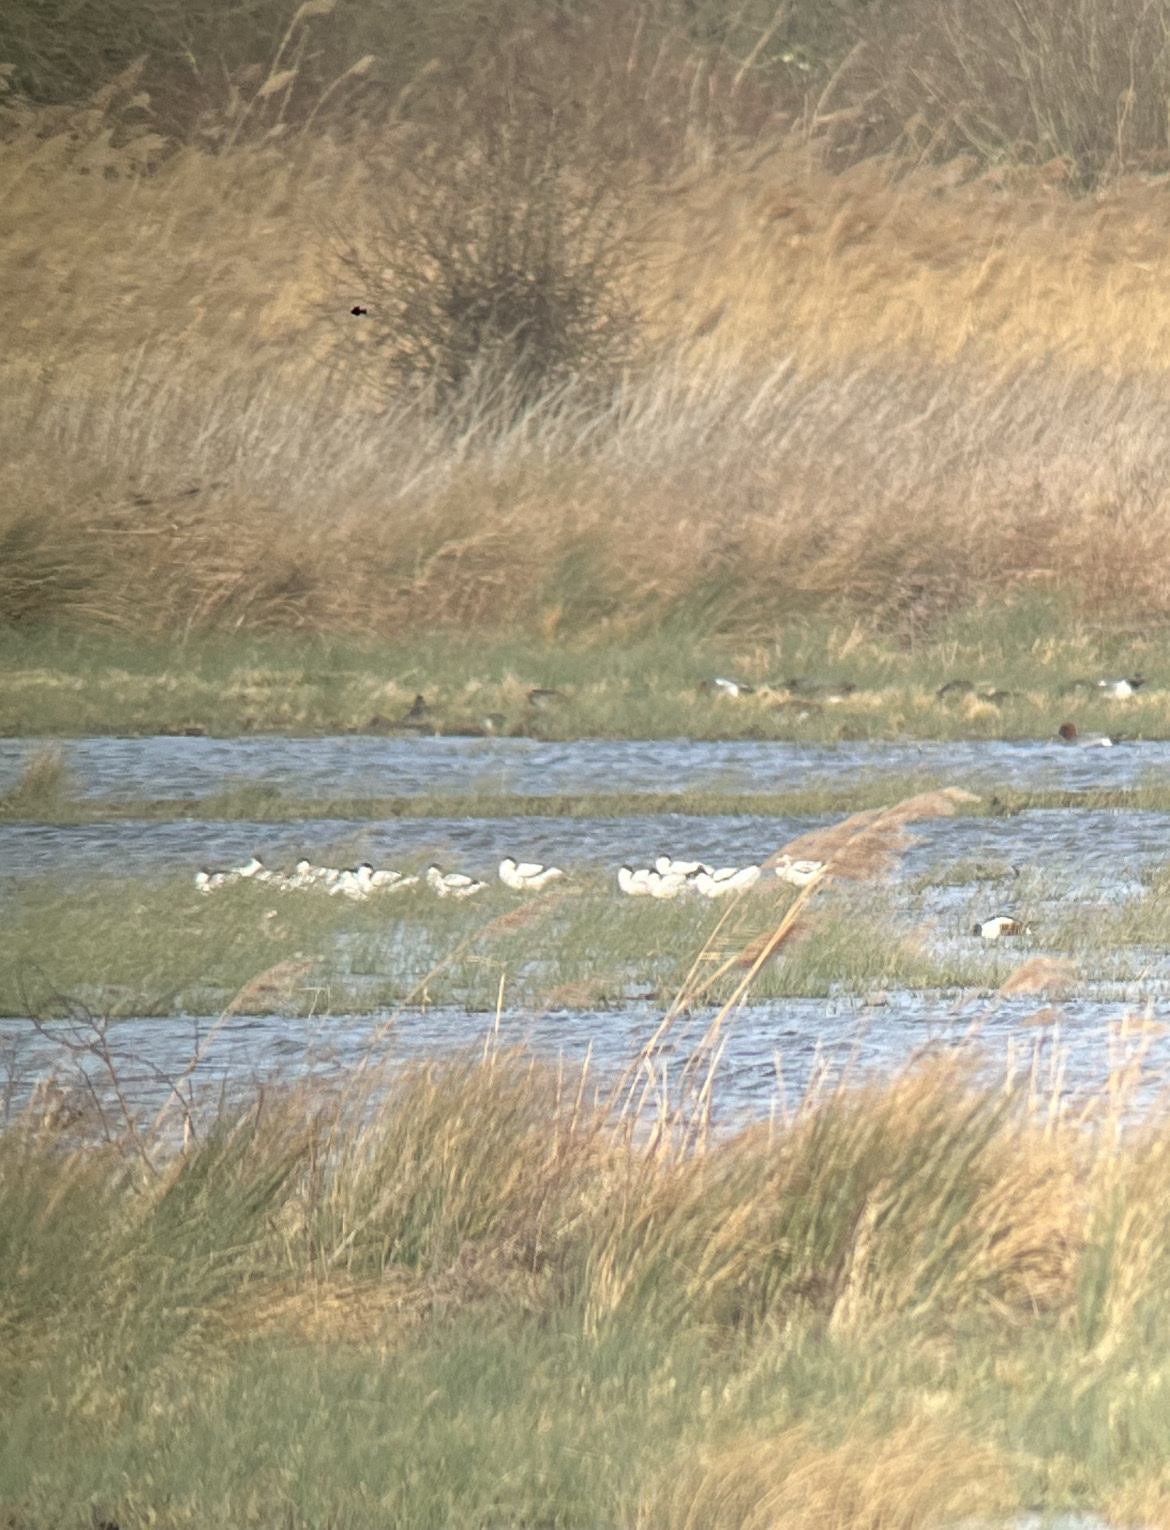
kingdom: Animalia
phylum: Chordata
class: Aves
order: Charadriiformes
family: Recurvirostridae
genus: Recurvirostra
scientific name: Recurvirostra avosetta
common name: Pied avocet
